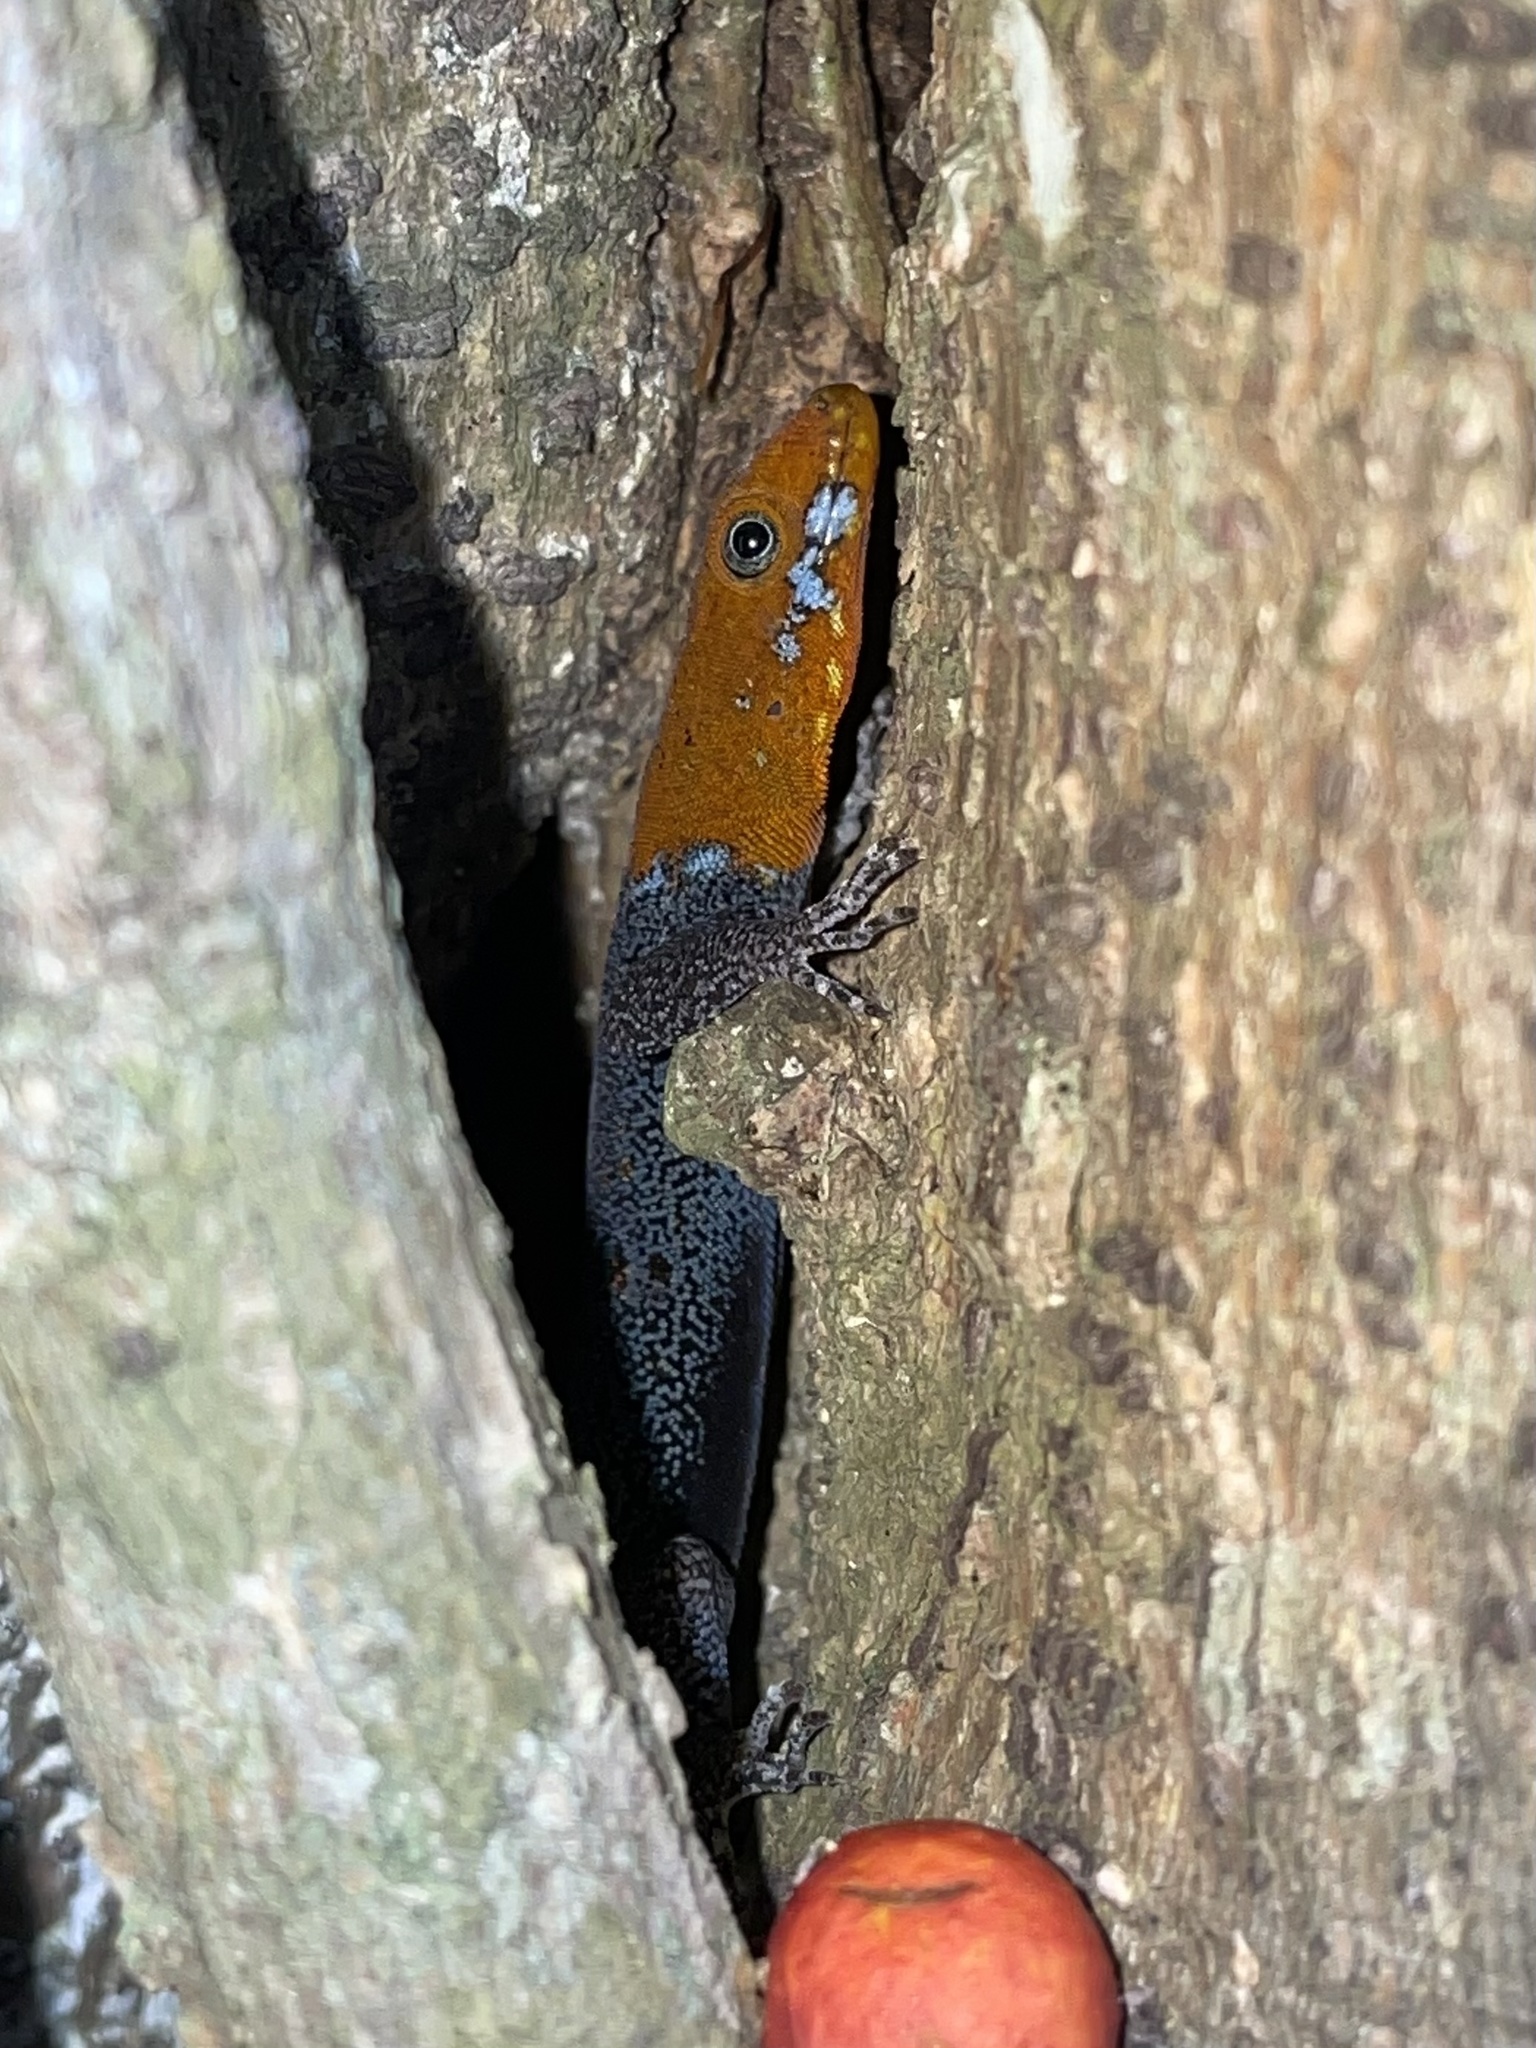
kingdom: Animalia
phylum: Chordata
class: Squamata
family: Sphaerodactylidae
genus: Gonatodes
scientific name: Gonatodes albogularis
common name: Yellow-headed gecko
